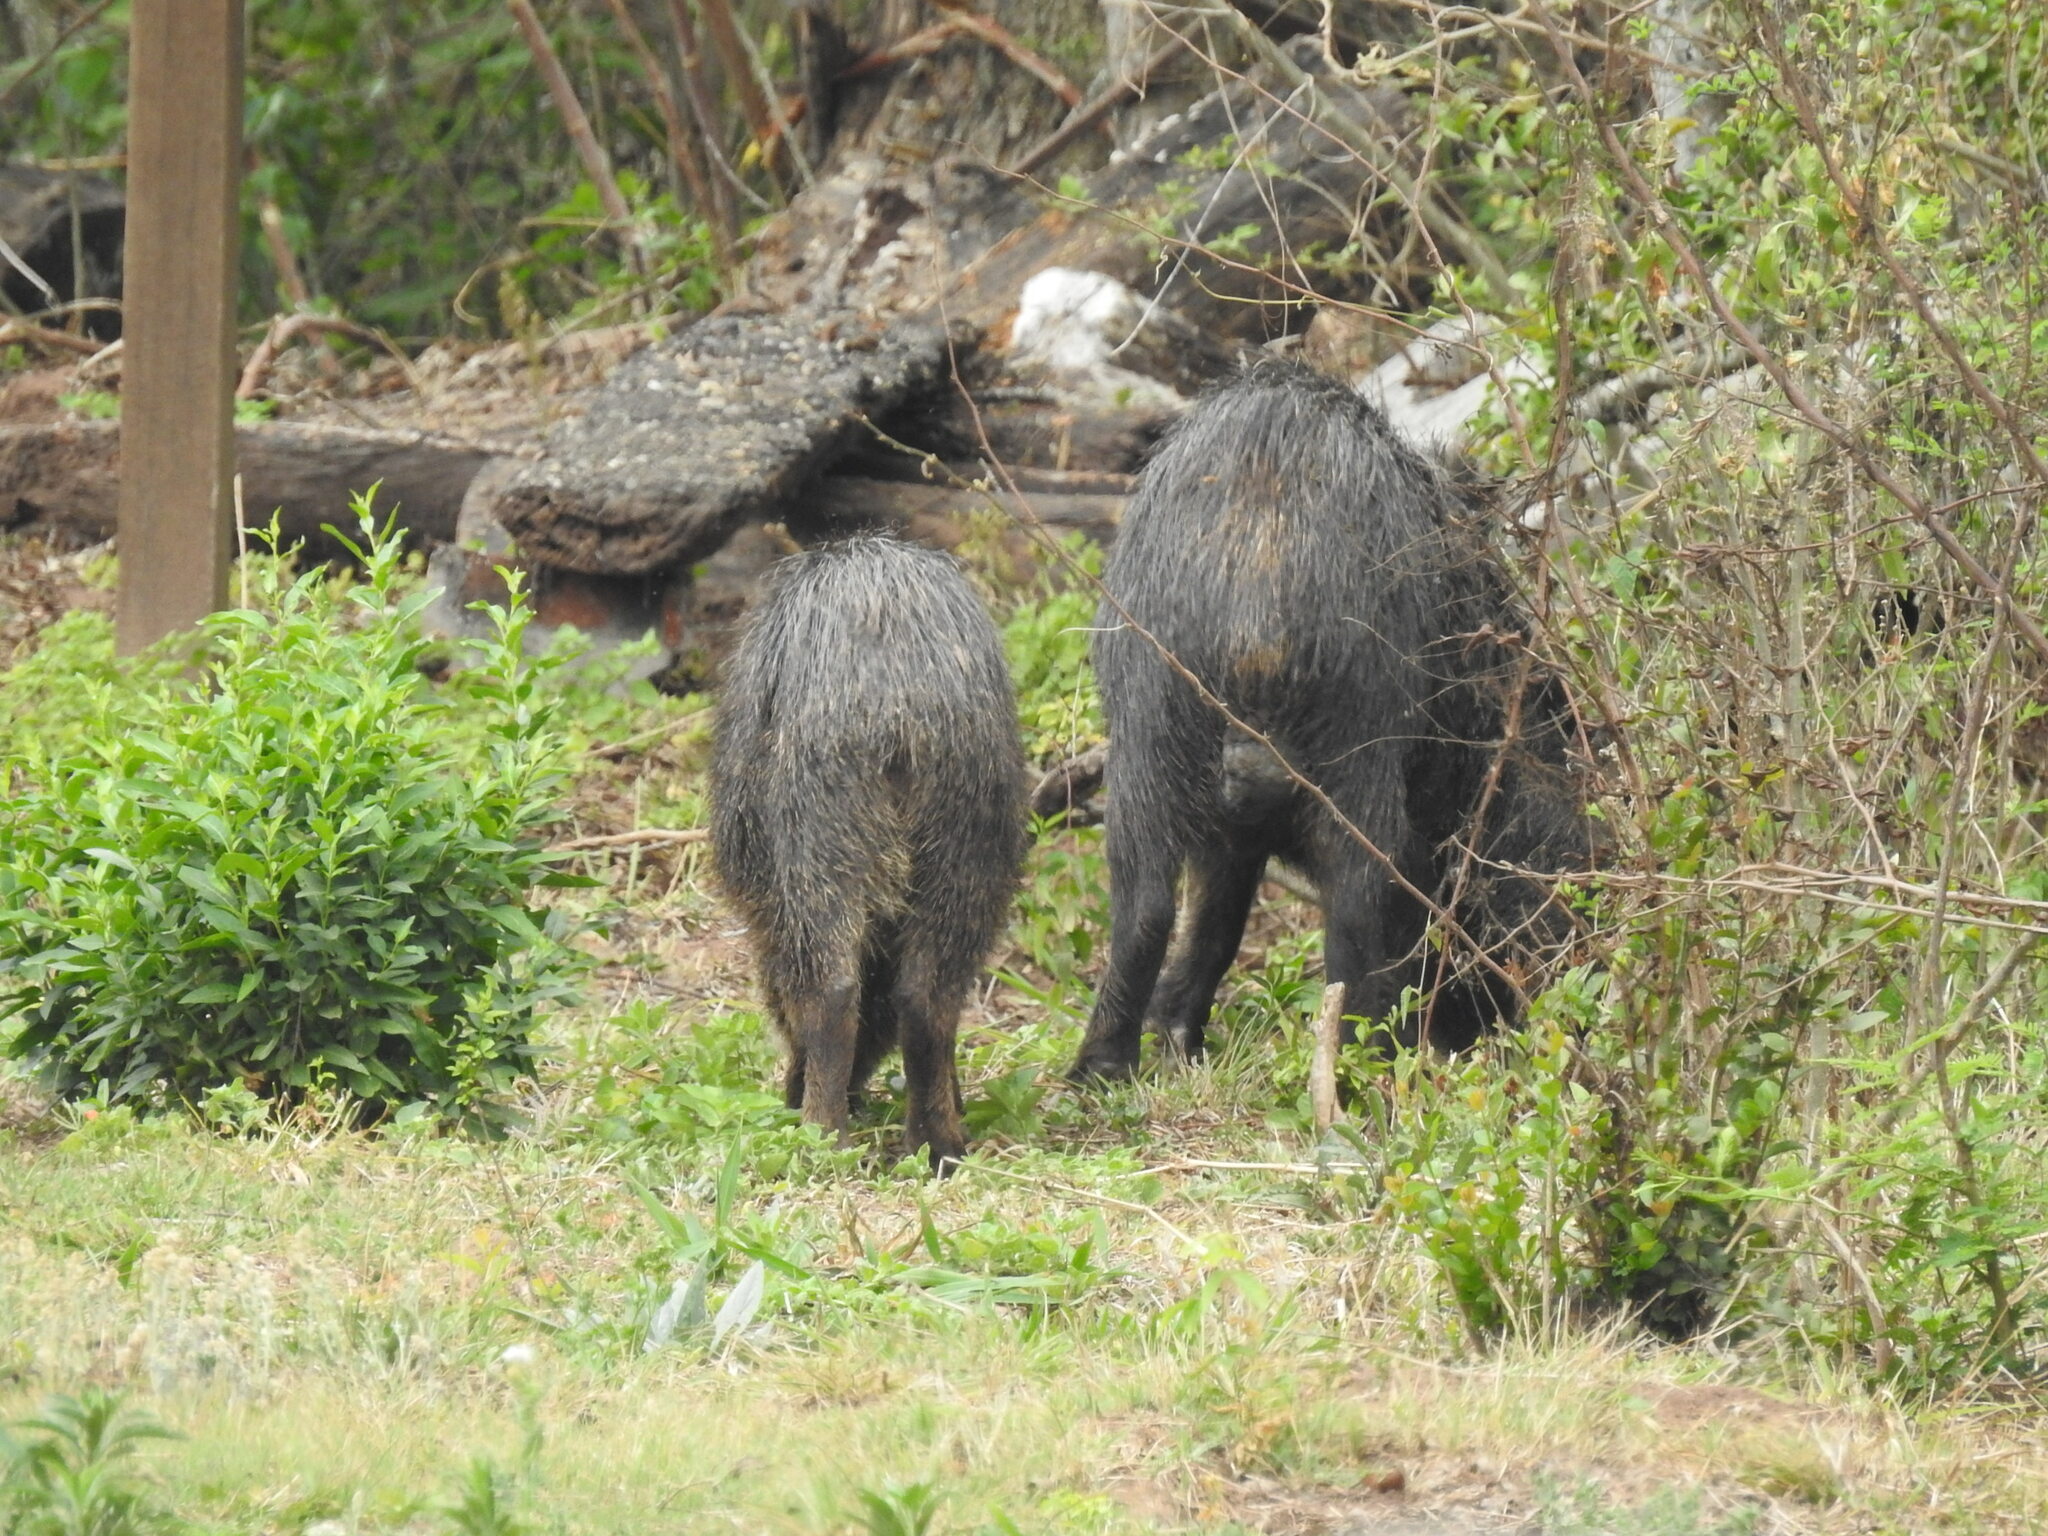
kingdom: Animalia
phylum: Chordata
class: Mammalia
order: Artiodactyla
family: Tayassuidae
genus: Tayassu
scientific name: Tayassu pecari
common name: White-lipped peccary
